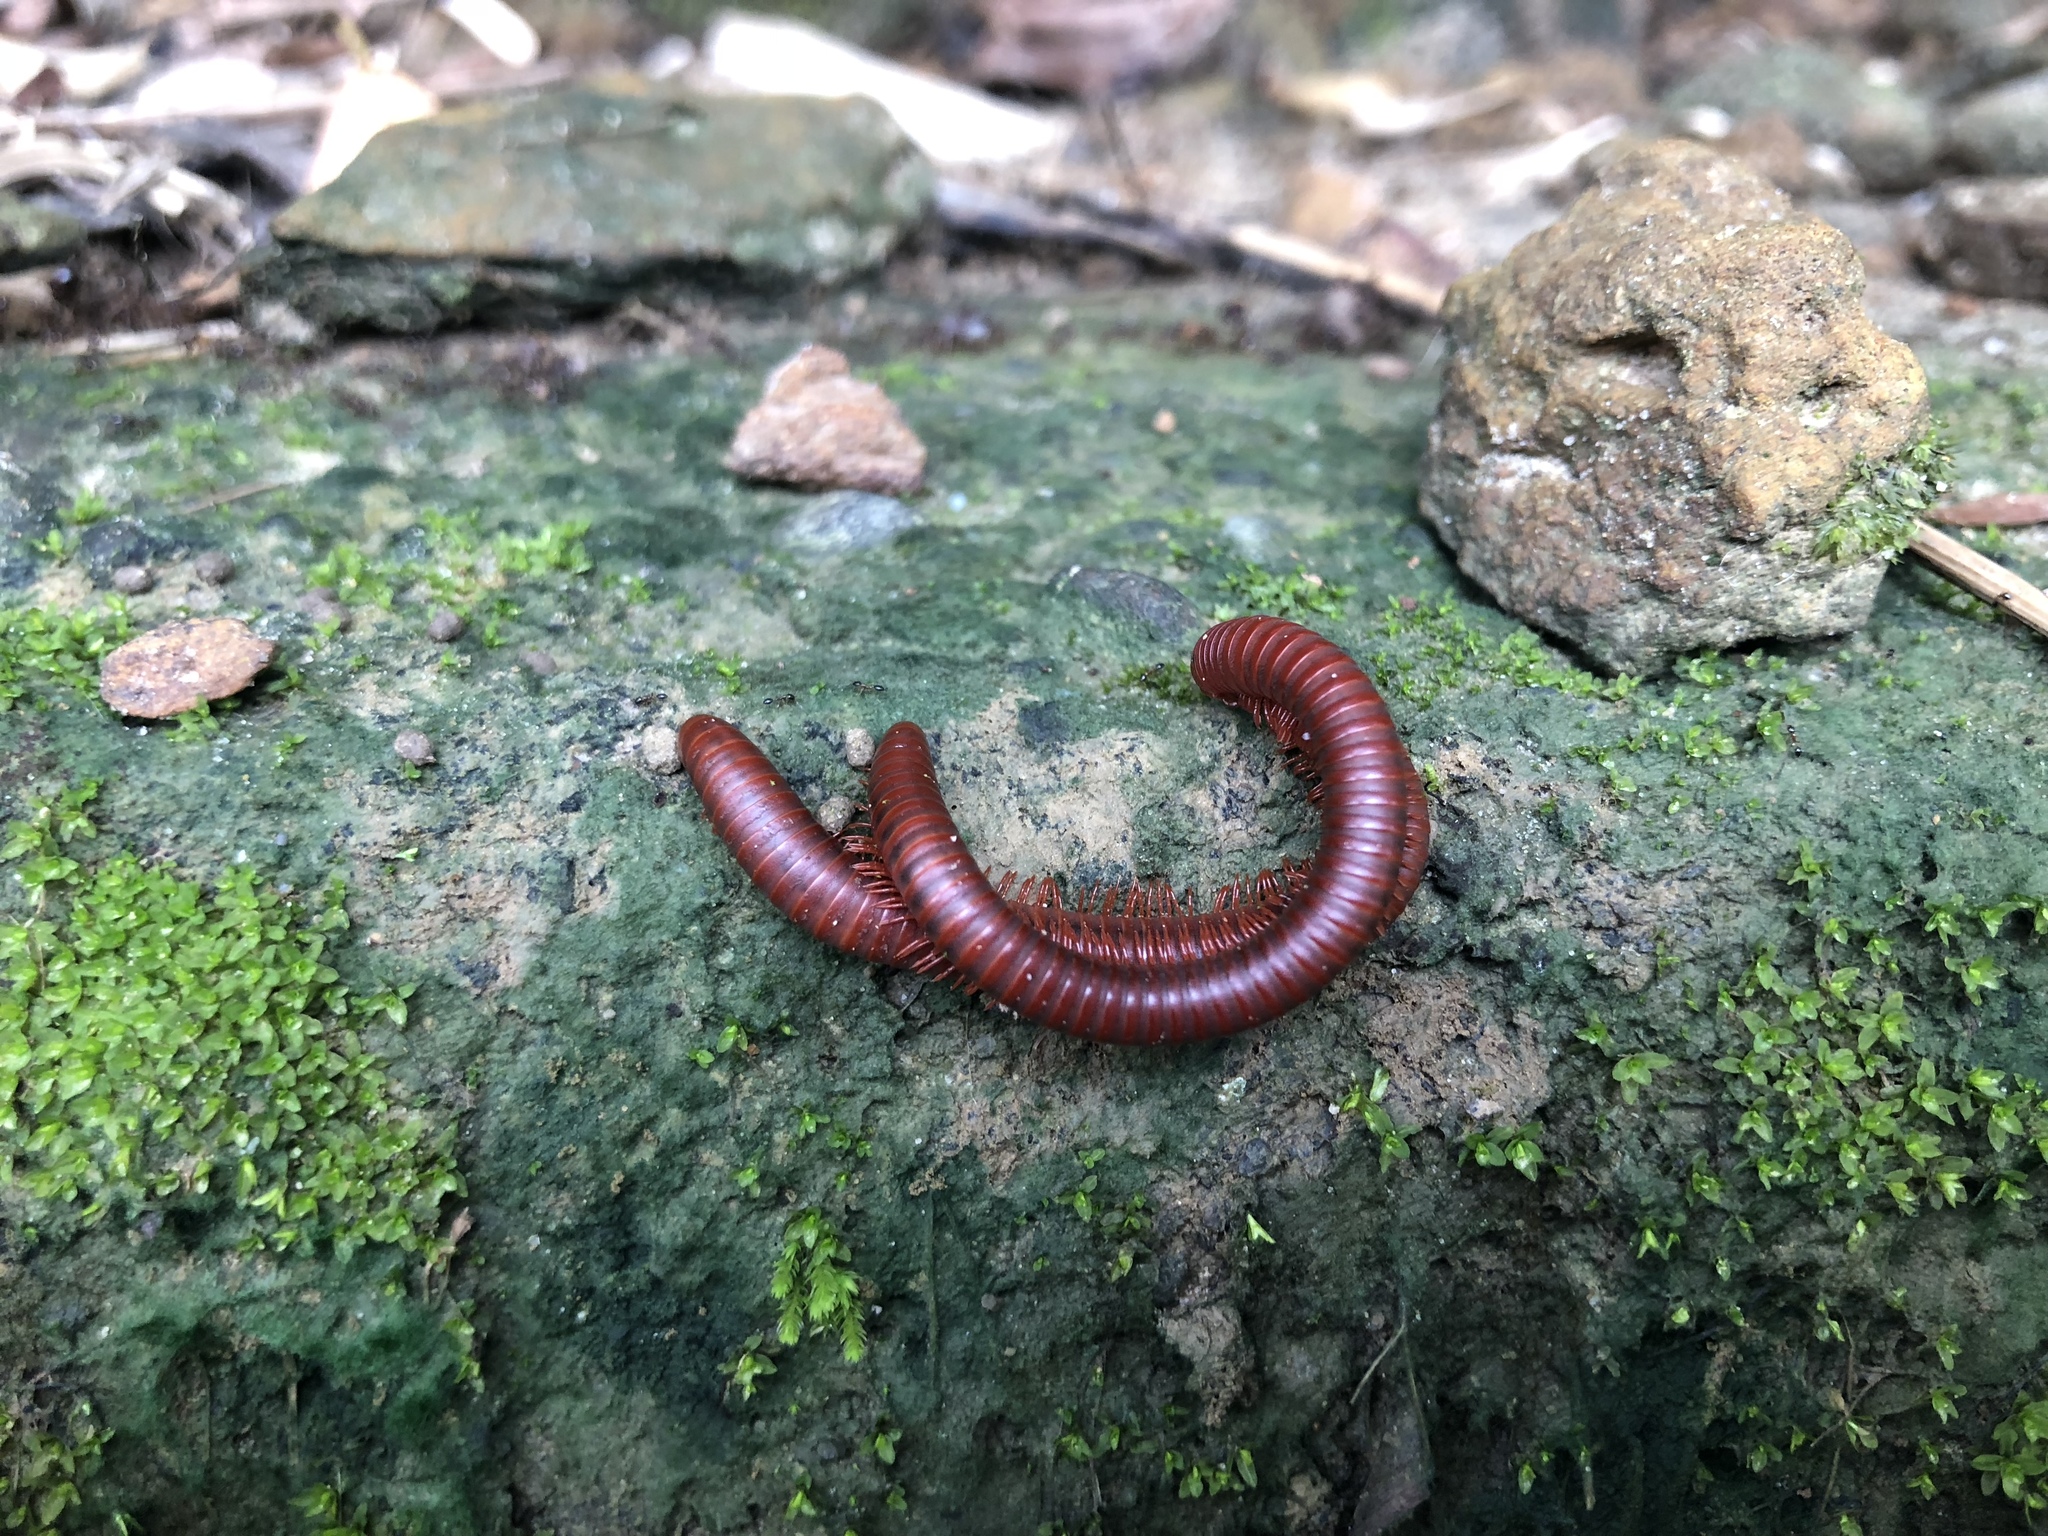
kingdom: Animalia
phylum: Arthropoda
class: Diplopoda
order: Spirobolida
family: Pachybolidae
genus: Trigoniulus
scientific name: Trigoniulus corallinus
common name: Millipede
